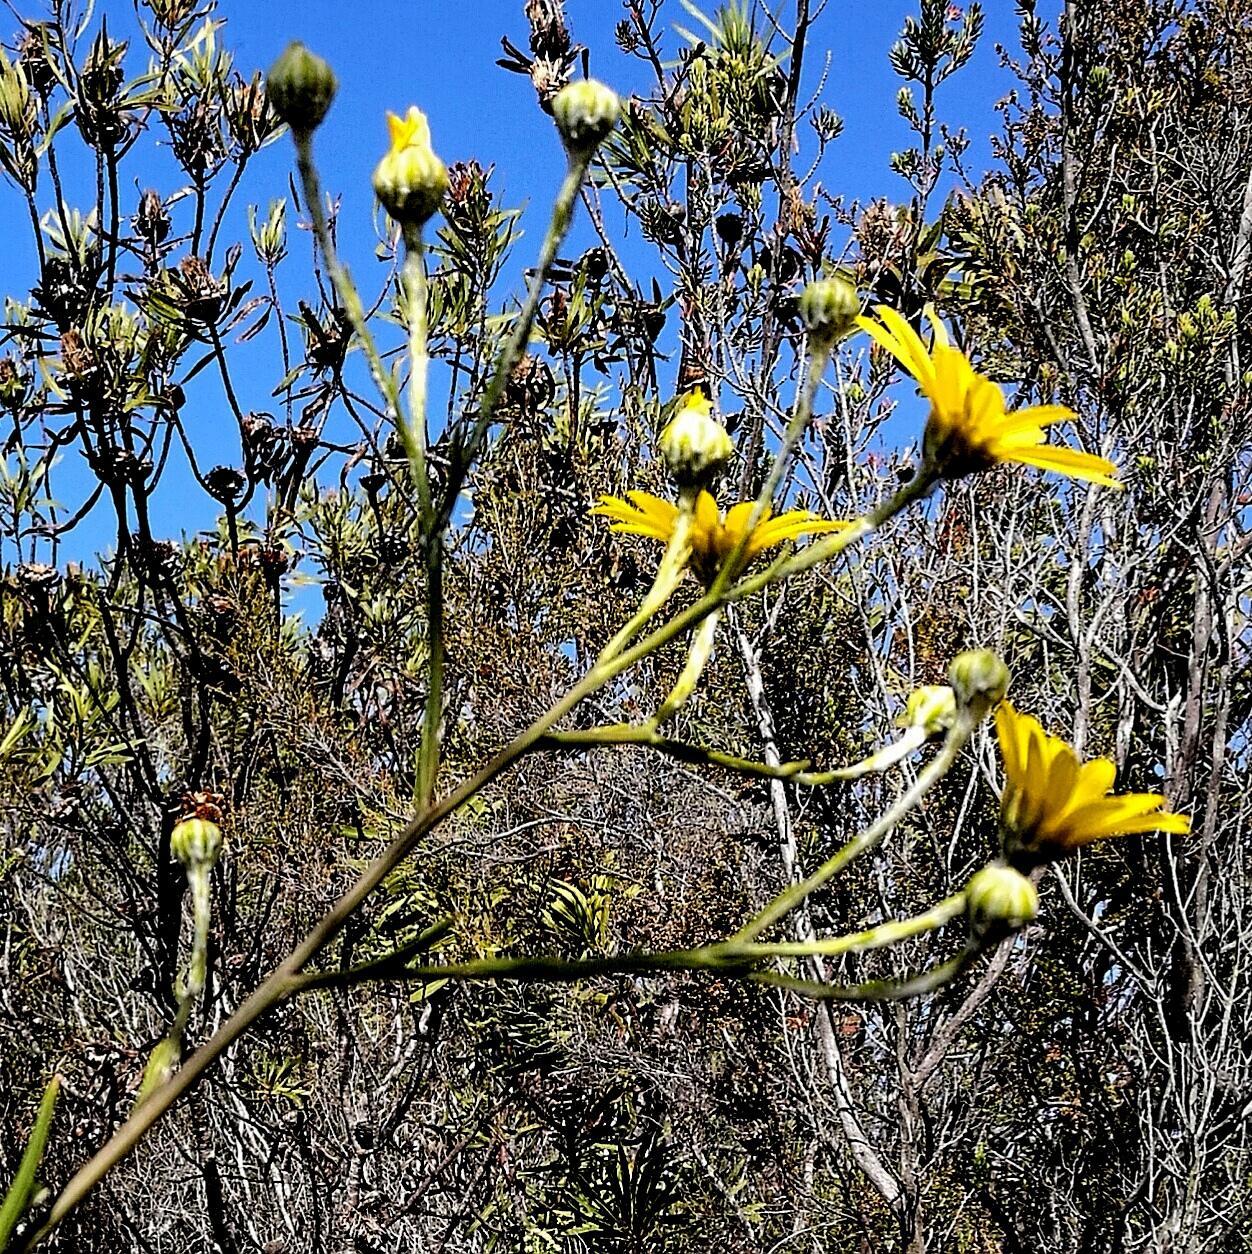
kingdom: Plantae
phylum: Tracheophyta
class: Magnoliopsida
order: Asterales
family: Asteraceae
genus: Osteospermum
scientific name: Osteospermum junceum
